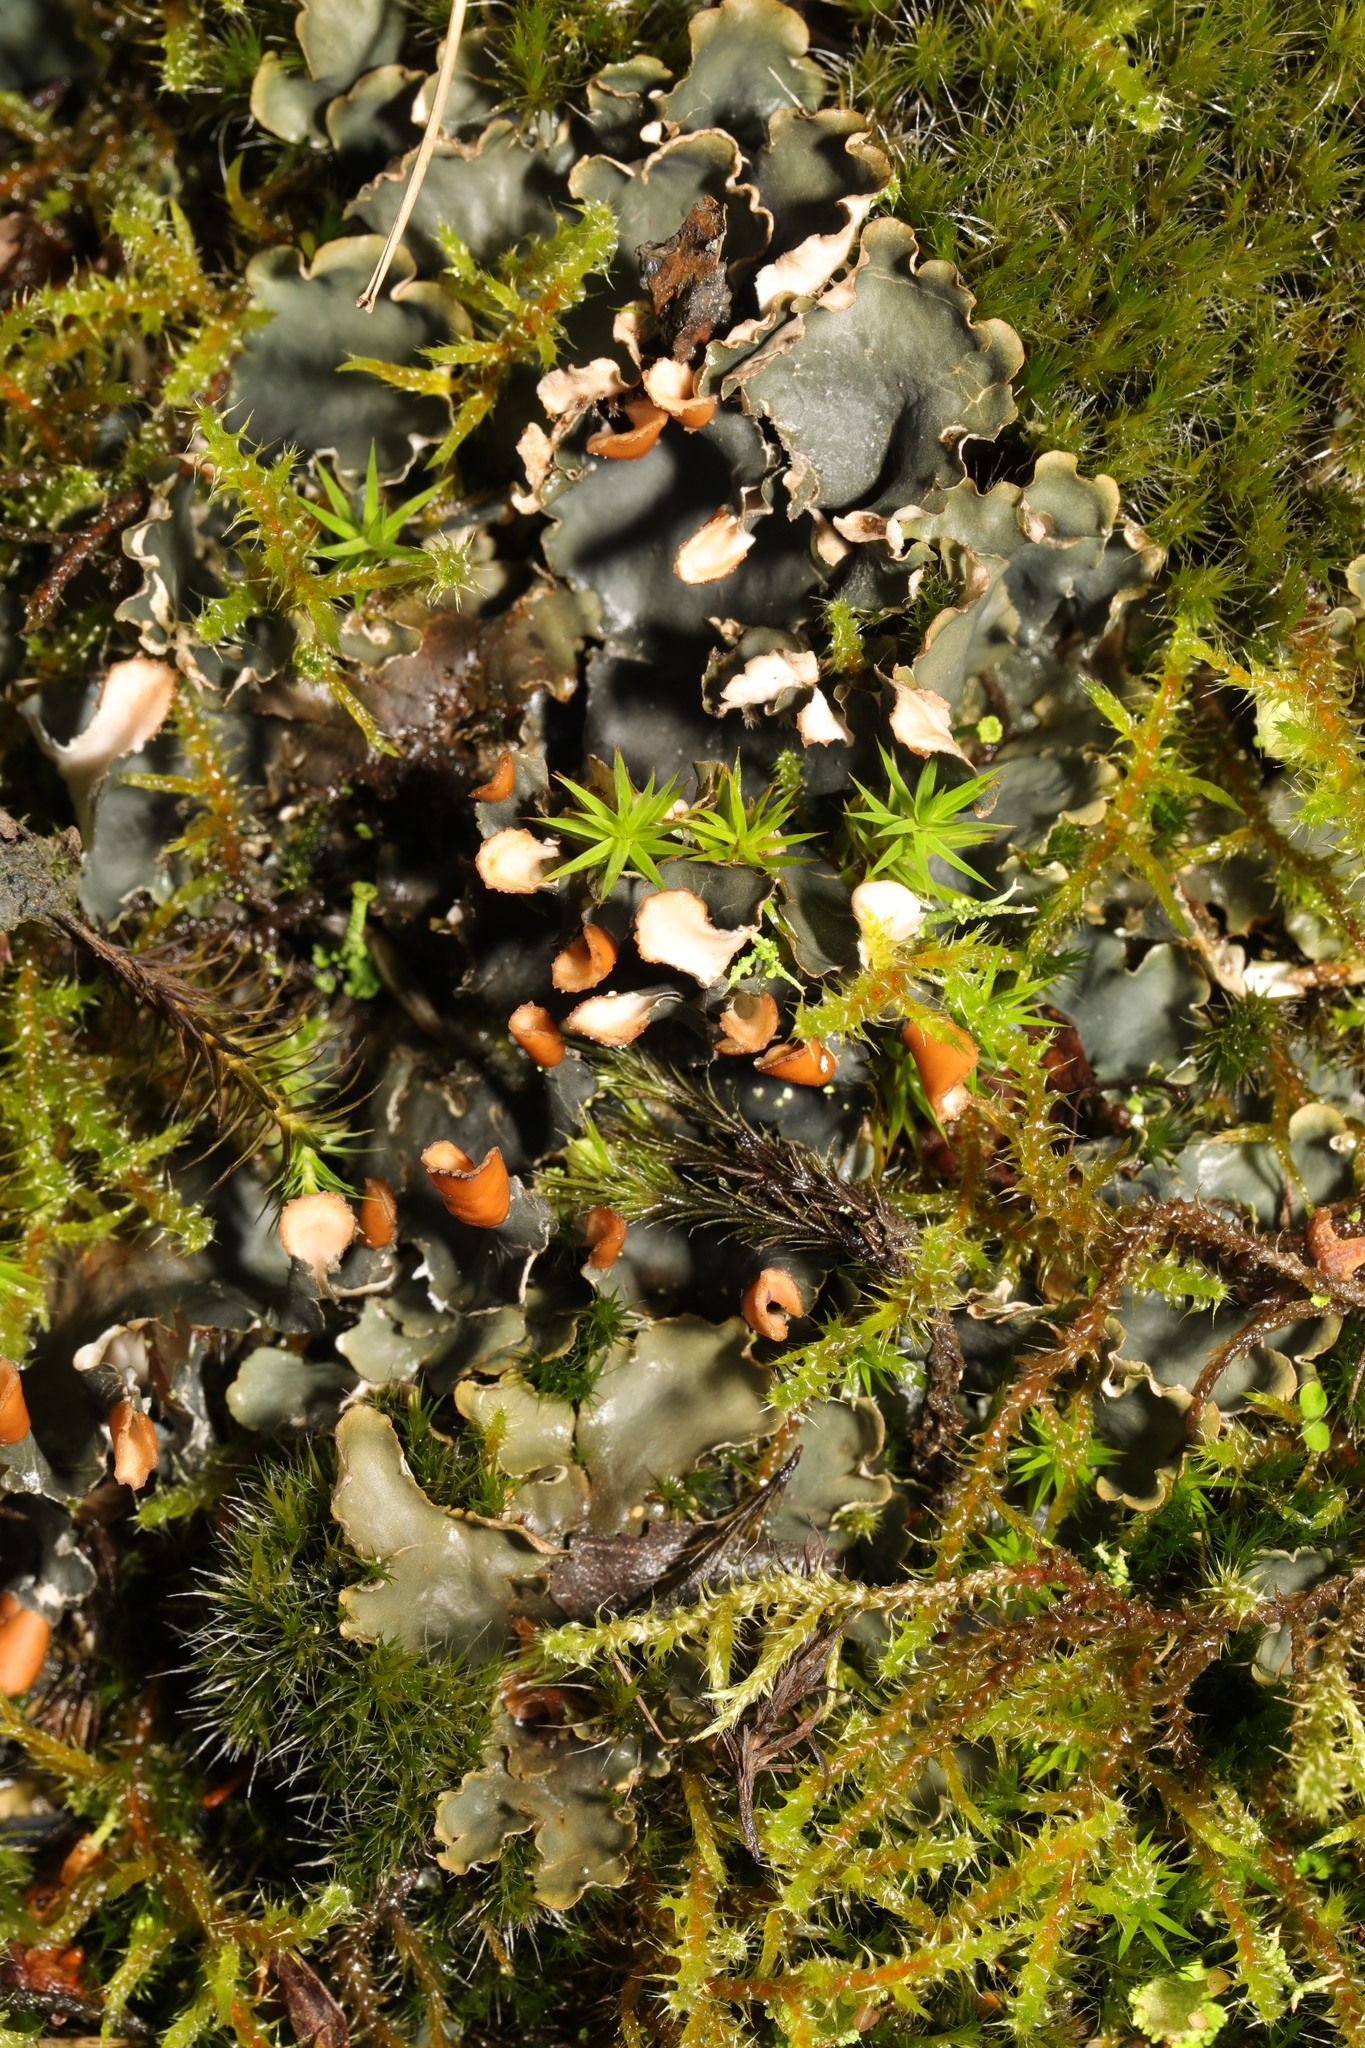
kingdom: Fungi
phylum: Ascomycota
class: Lecanoromycetes
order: Peltigerales
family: Peltigeraceae
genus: Peltigera
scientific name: Peltigera
